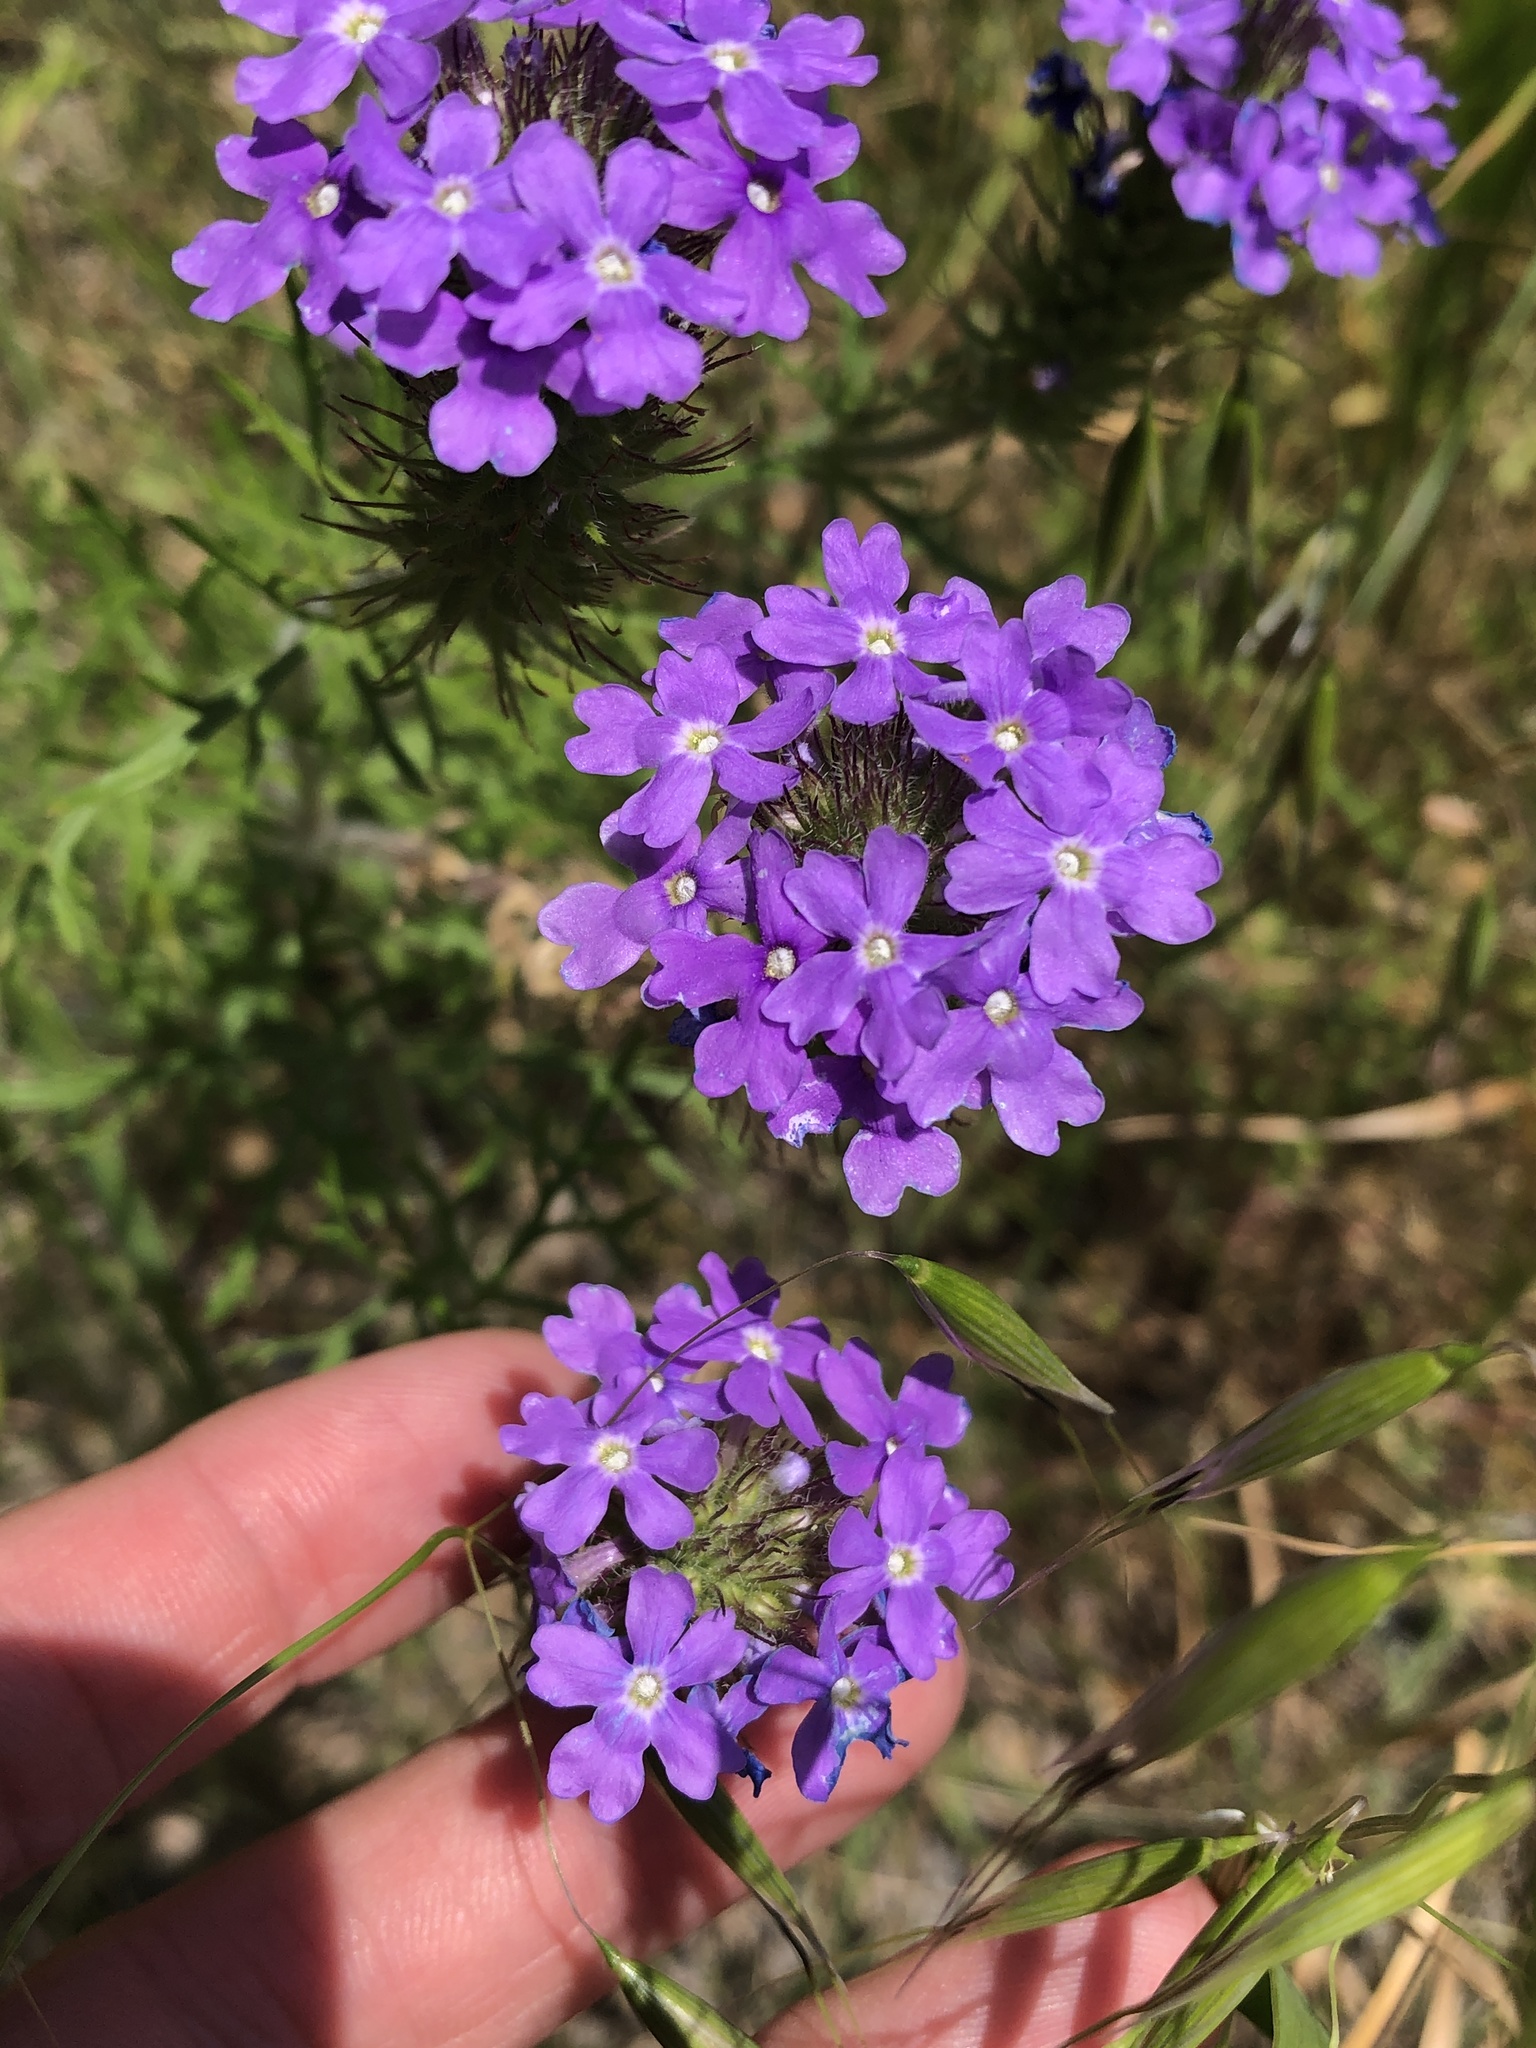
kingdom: Plantae
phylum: Tracheophyta
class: Magnoliopsida
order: Lamiales
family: Verbenaceae
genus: Verbena
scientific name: Verbena bipinnatifida
